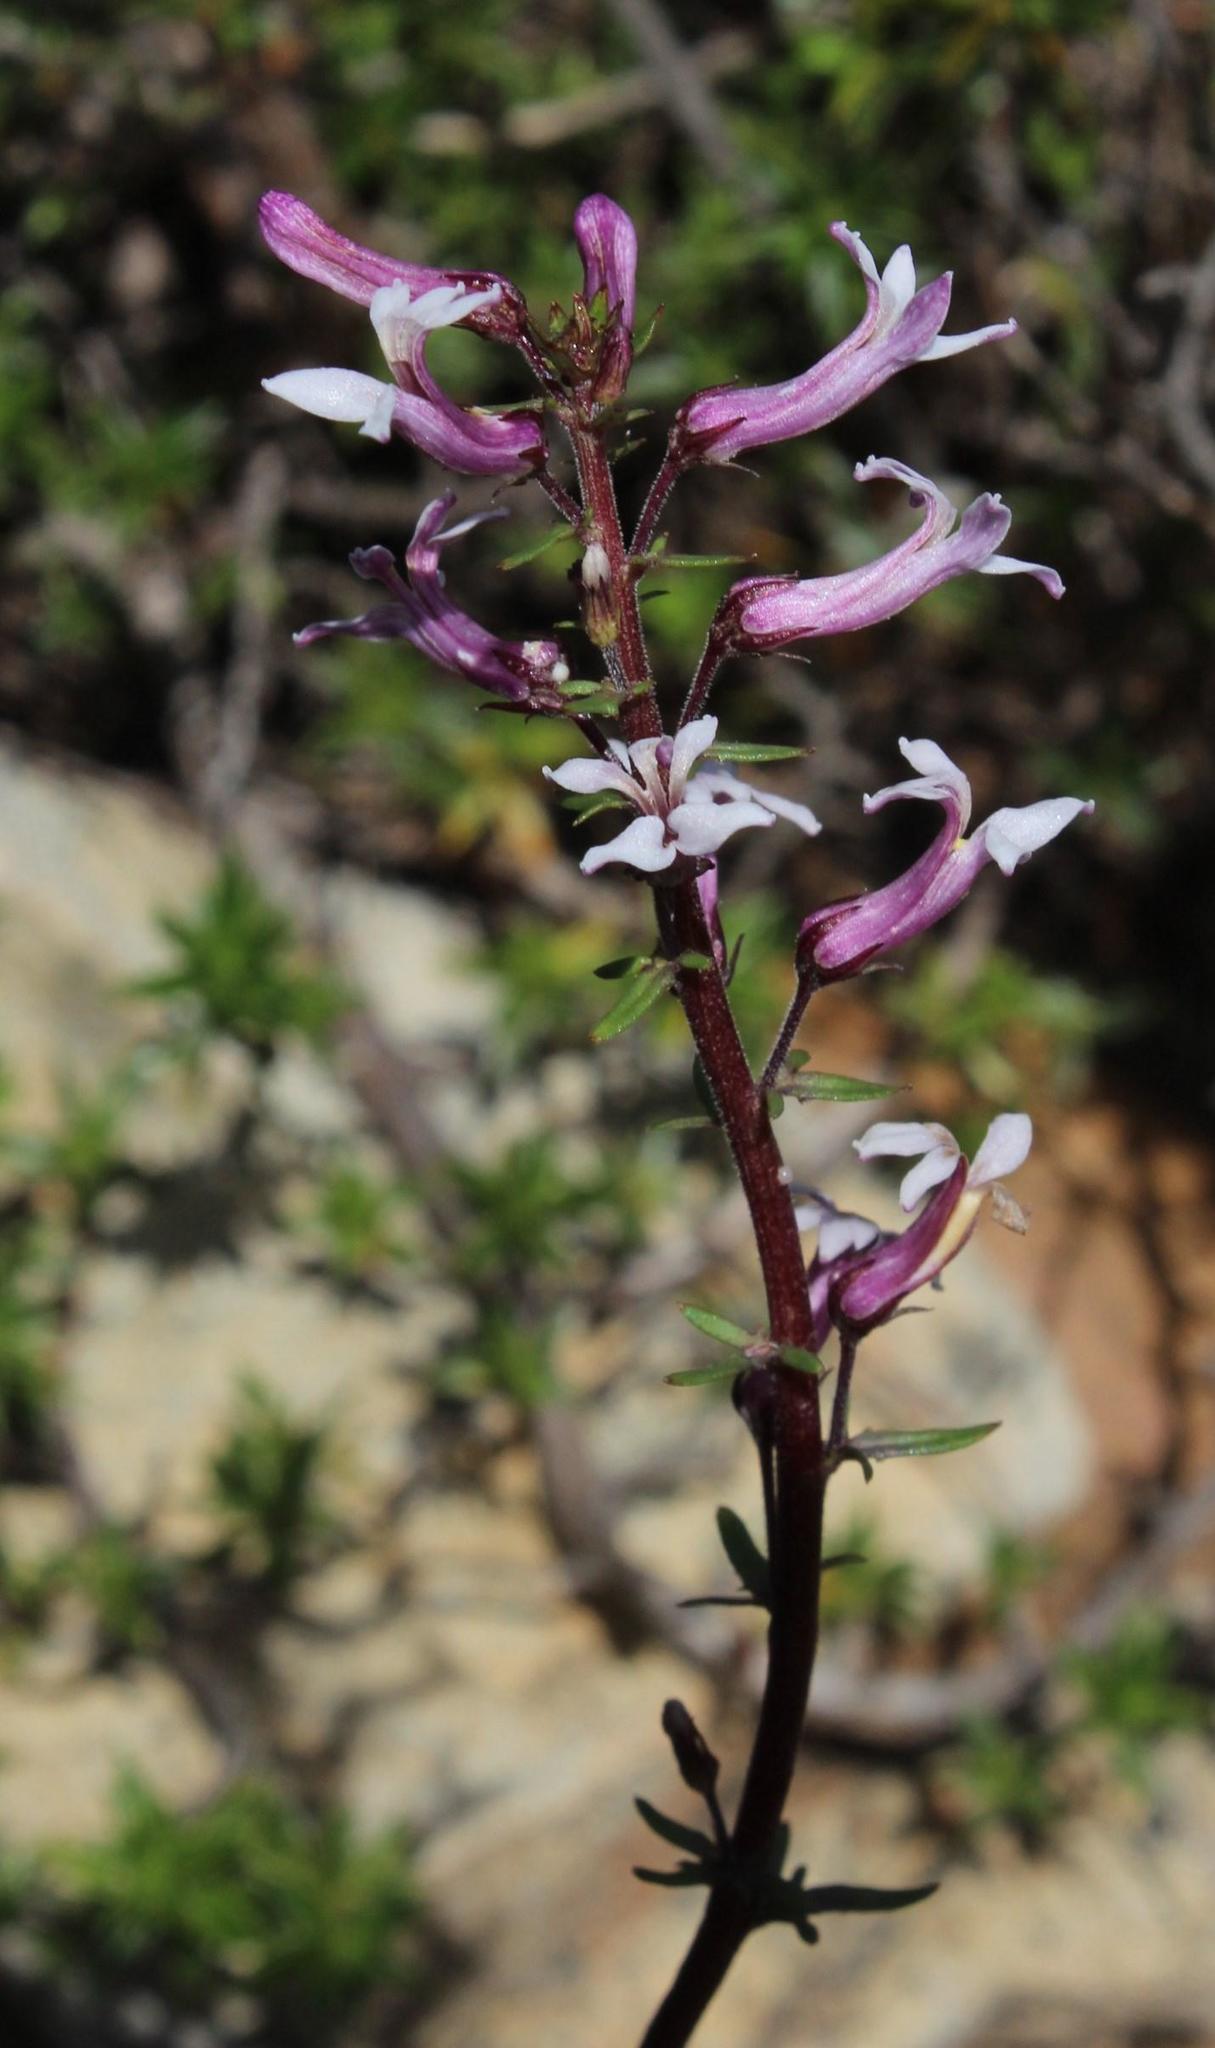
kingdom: Plantae
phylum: Tracheophyta
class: Magnoliopsida
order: Asterales
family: Campanulaceae
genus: Cyphia
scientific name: Cyphia bulbosa
